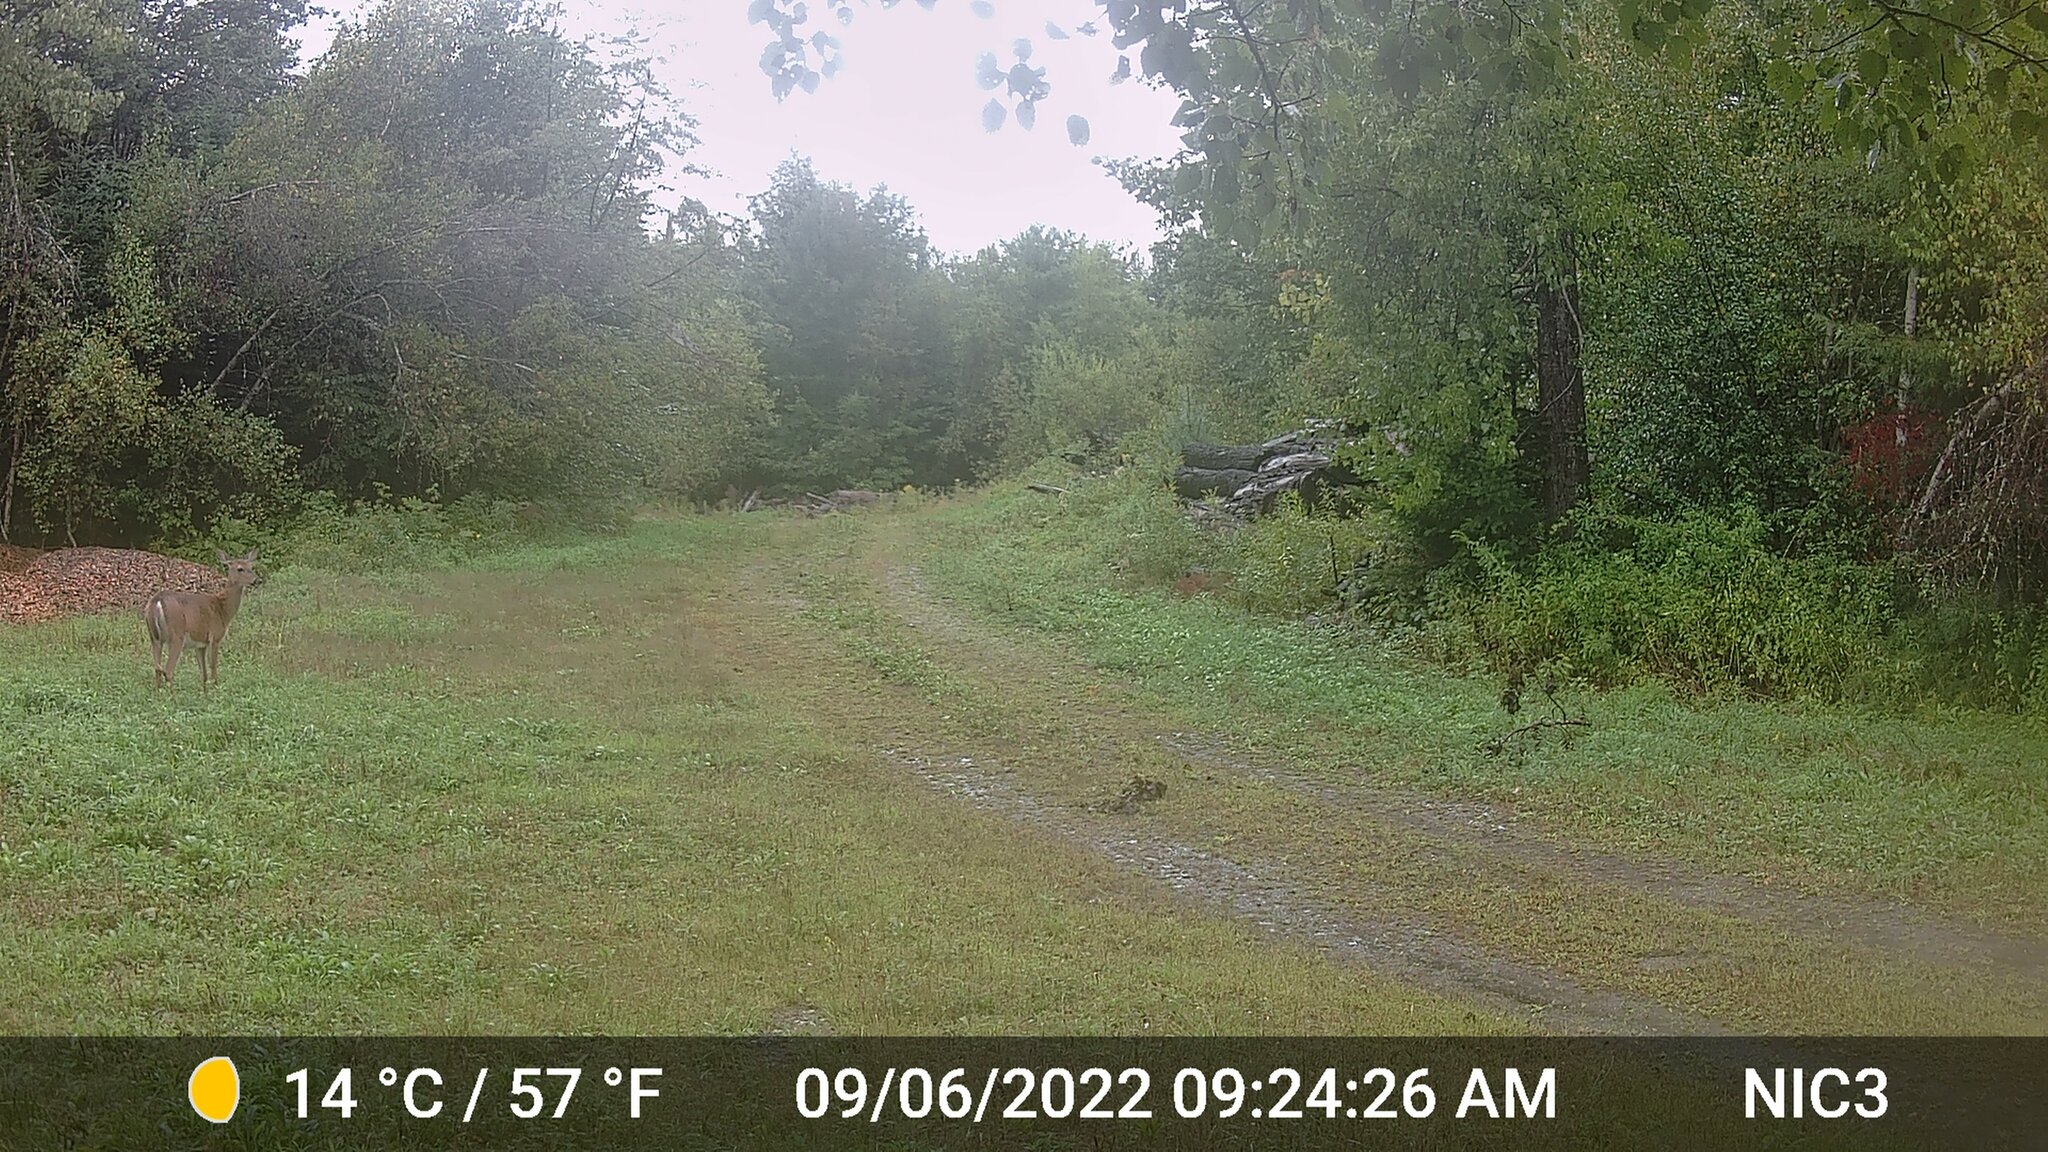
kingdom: Animalia
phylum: Chordata
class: Mammalia
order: Artiodactyla
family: Cervidae
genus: Odocoileus
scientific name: Odocoileus virginianus
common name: White-tailed deer
